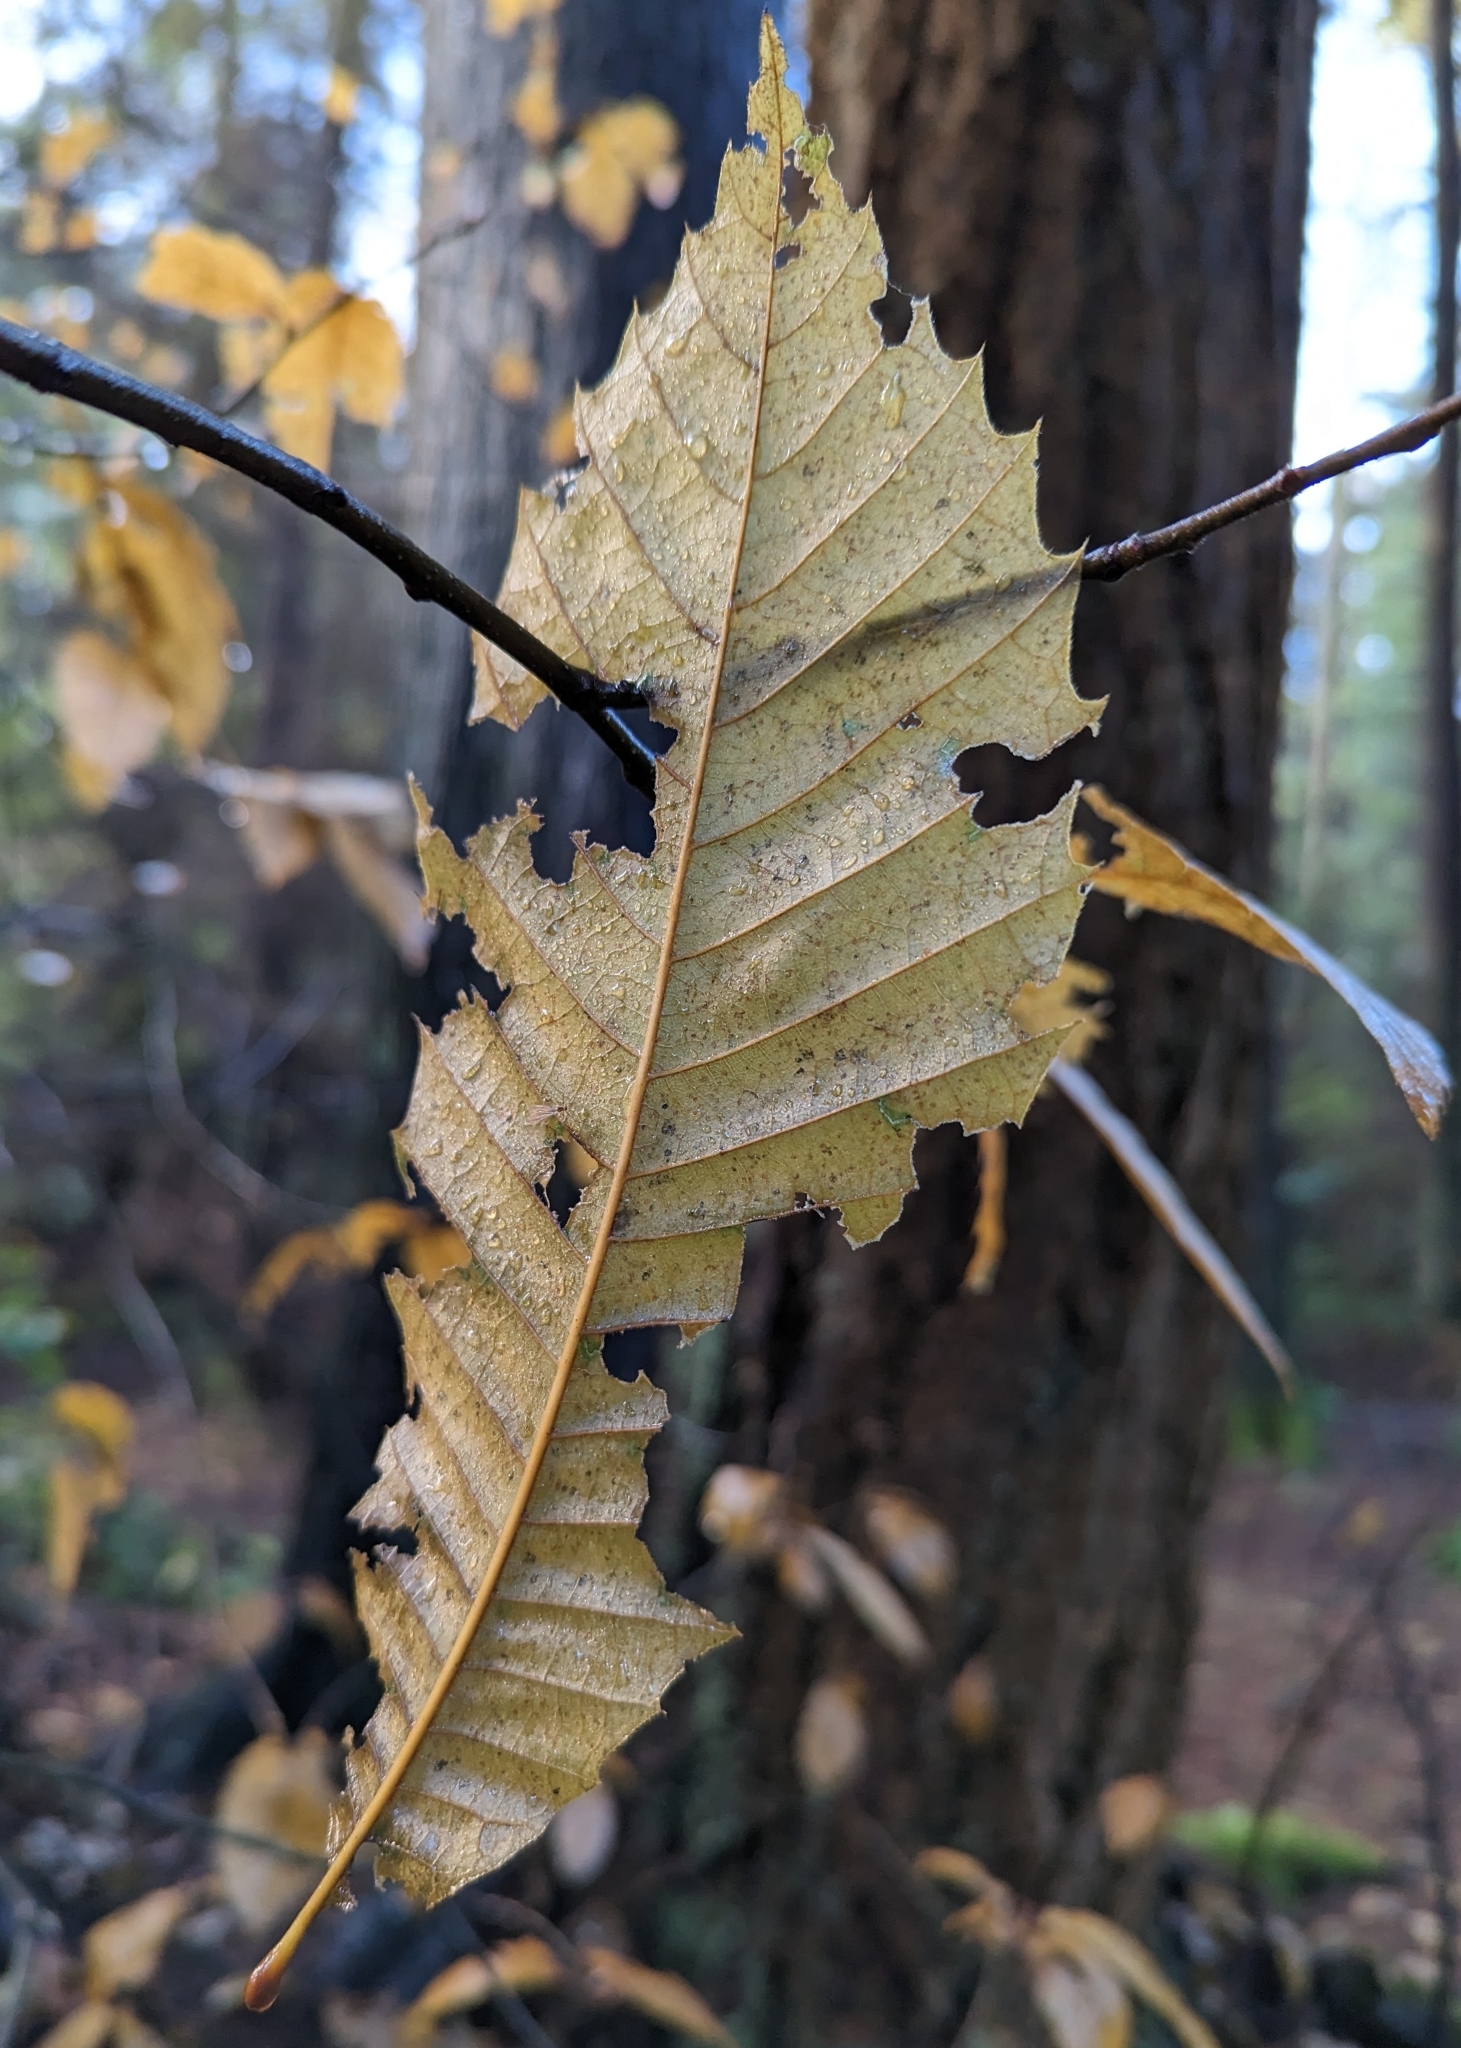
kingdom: Plantae
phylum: Tracheophyta
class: Magnoliopsida
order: Fagales
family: Betulaceae
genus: Alnus
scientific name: Alnus rubra
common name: Red alder
